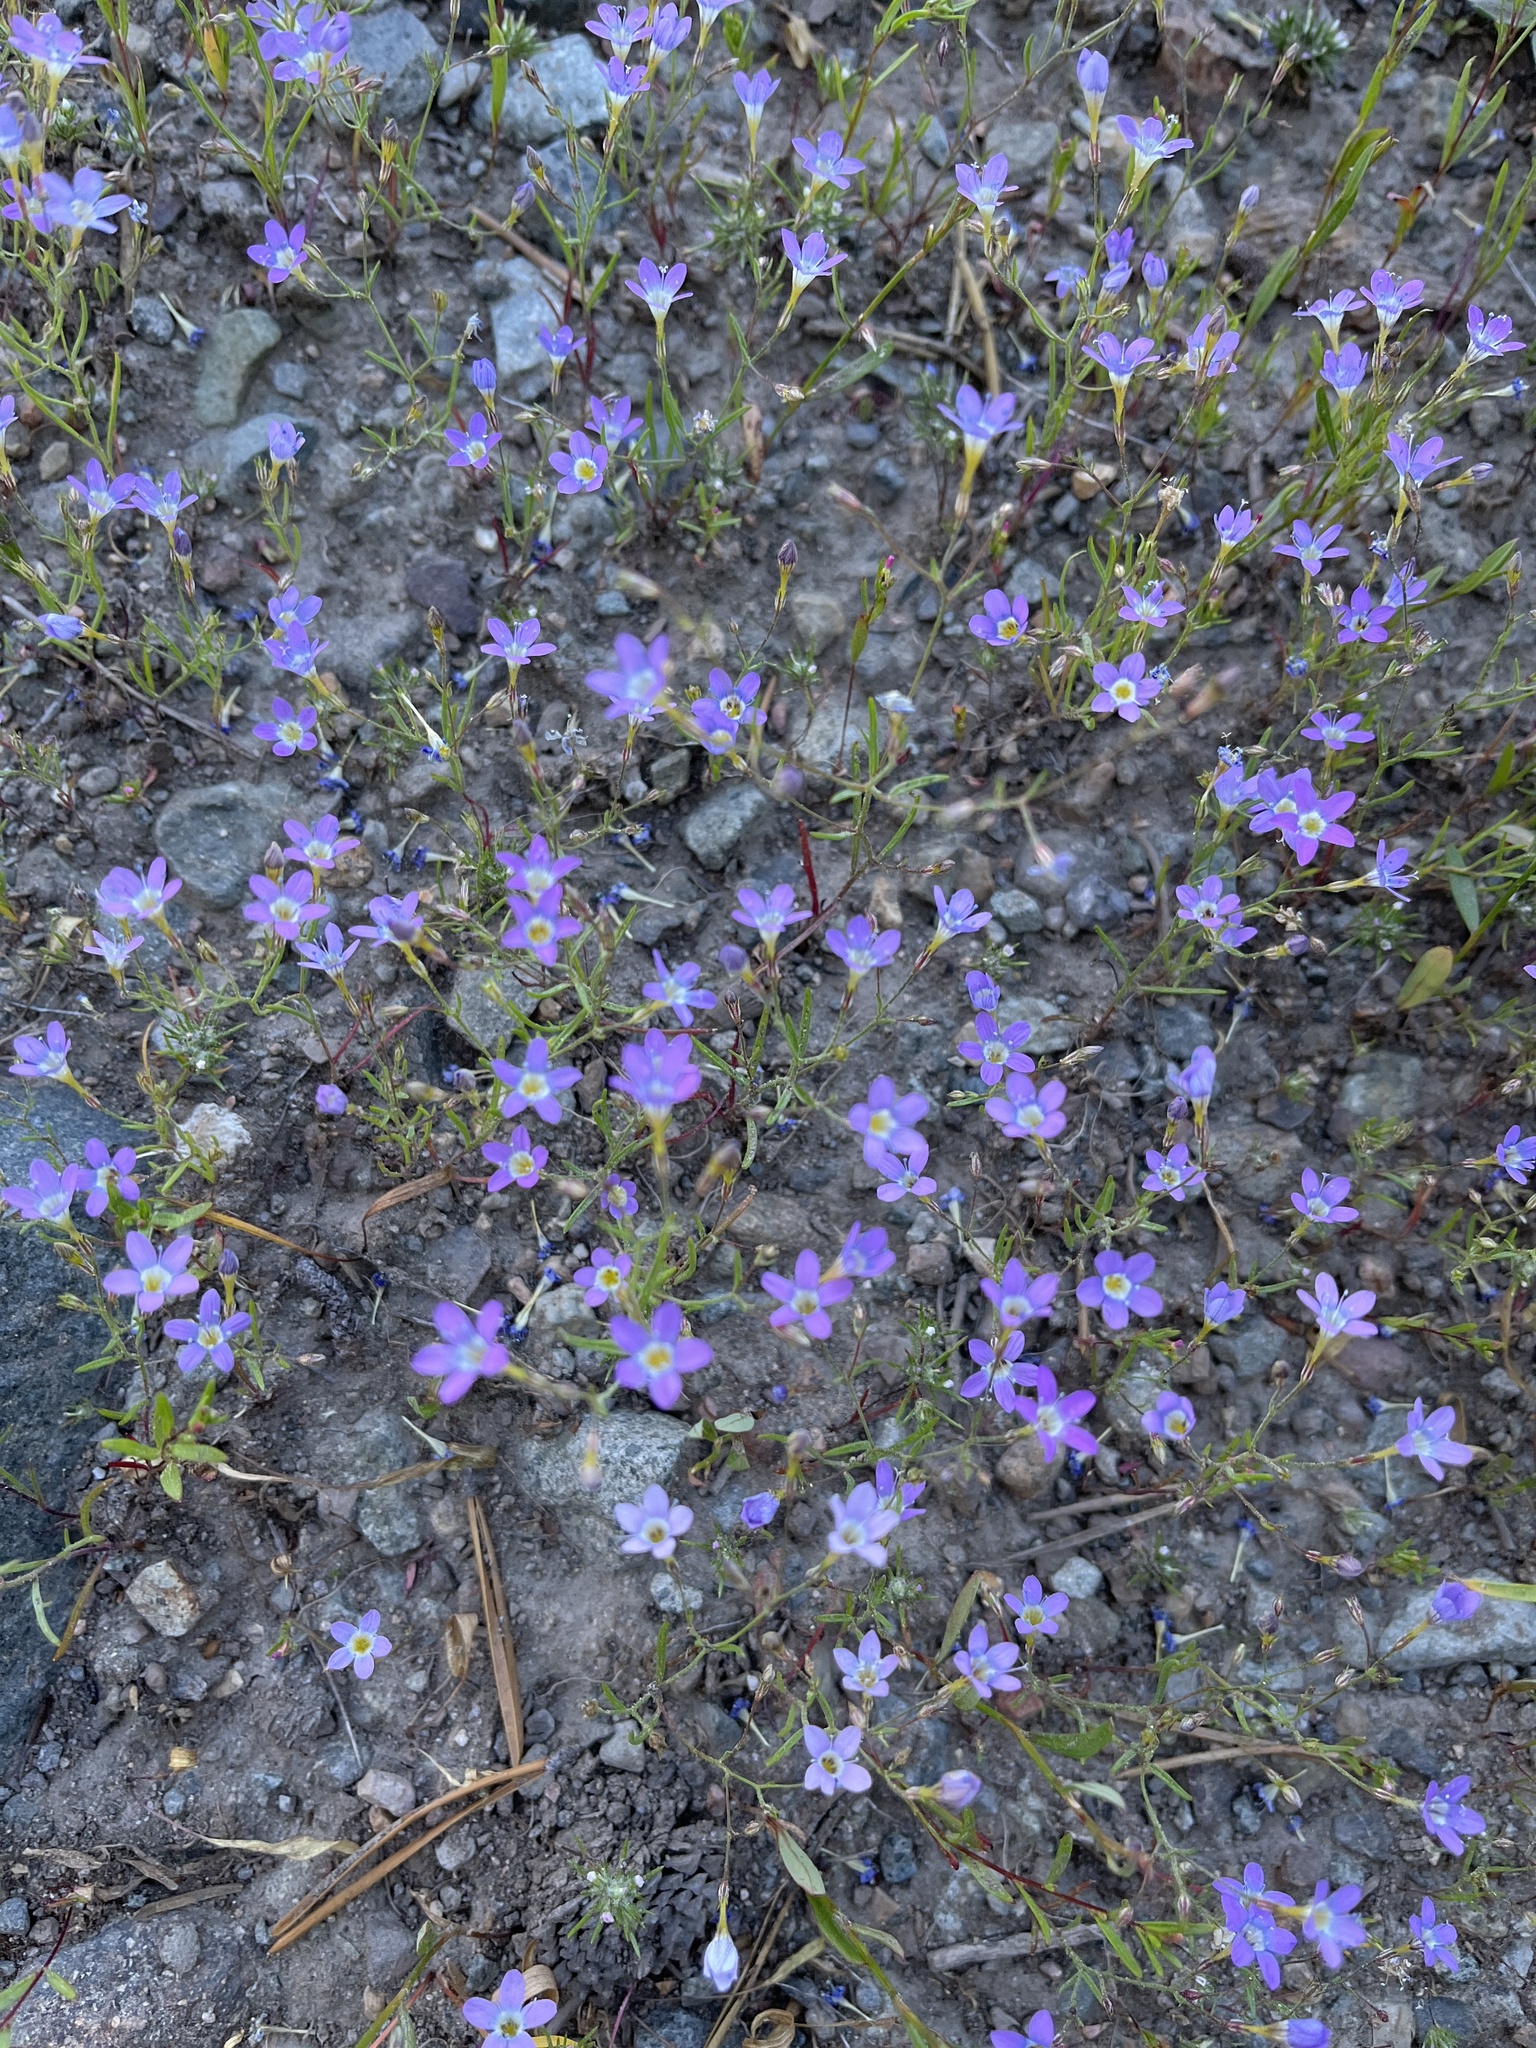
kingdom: Plantae
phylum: Tracheophyta
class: Magnoliopsida
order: Ericales
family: Polemoniaceae
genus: Navarretia
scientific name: Navarretia leptalea
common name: Bridges' pincushionplant
